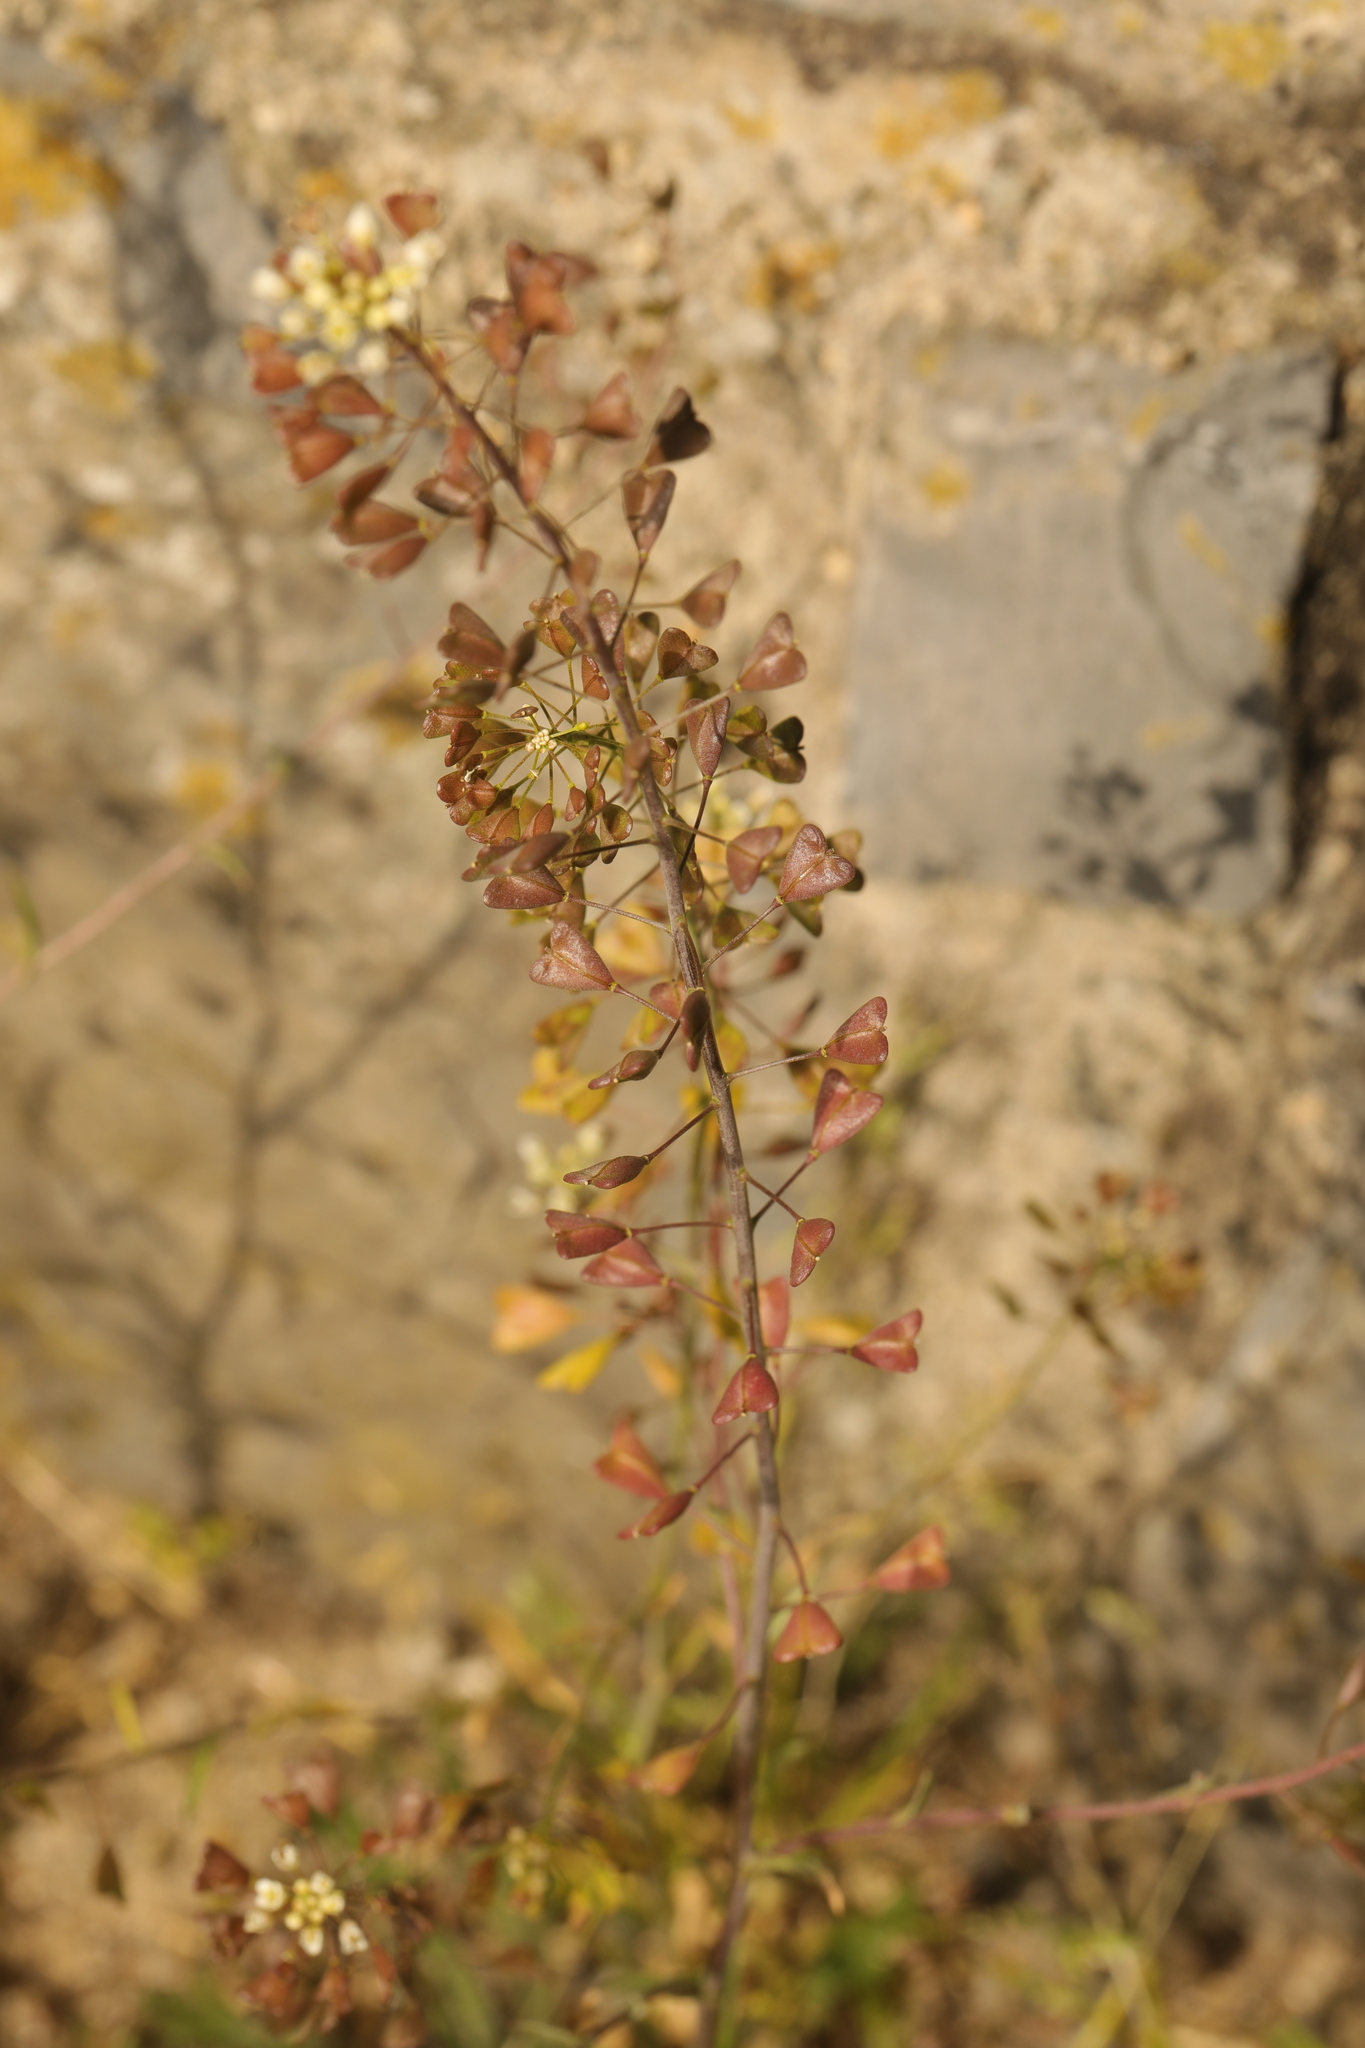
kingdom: Plantae
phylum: Tracheophyta
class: Magnoliopsida
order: Brassicales
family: Brassicaceae
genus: Capsella
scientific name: Capsella bursa-pastoris
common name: Shepherd's purse
